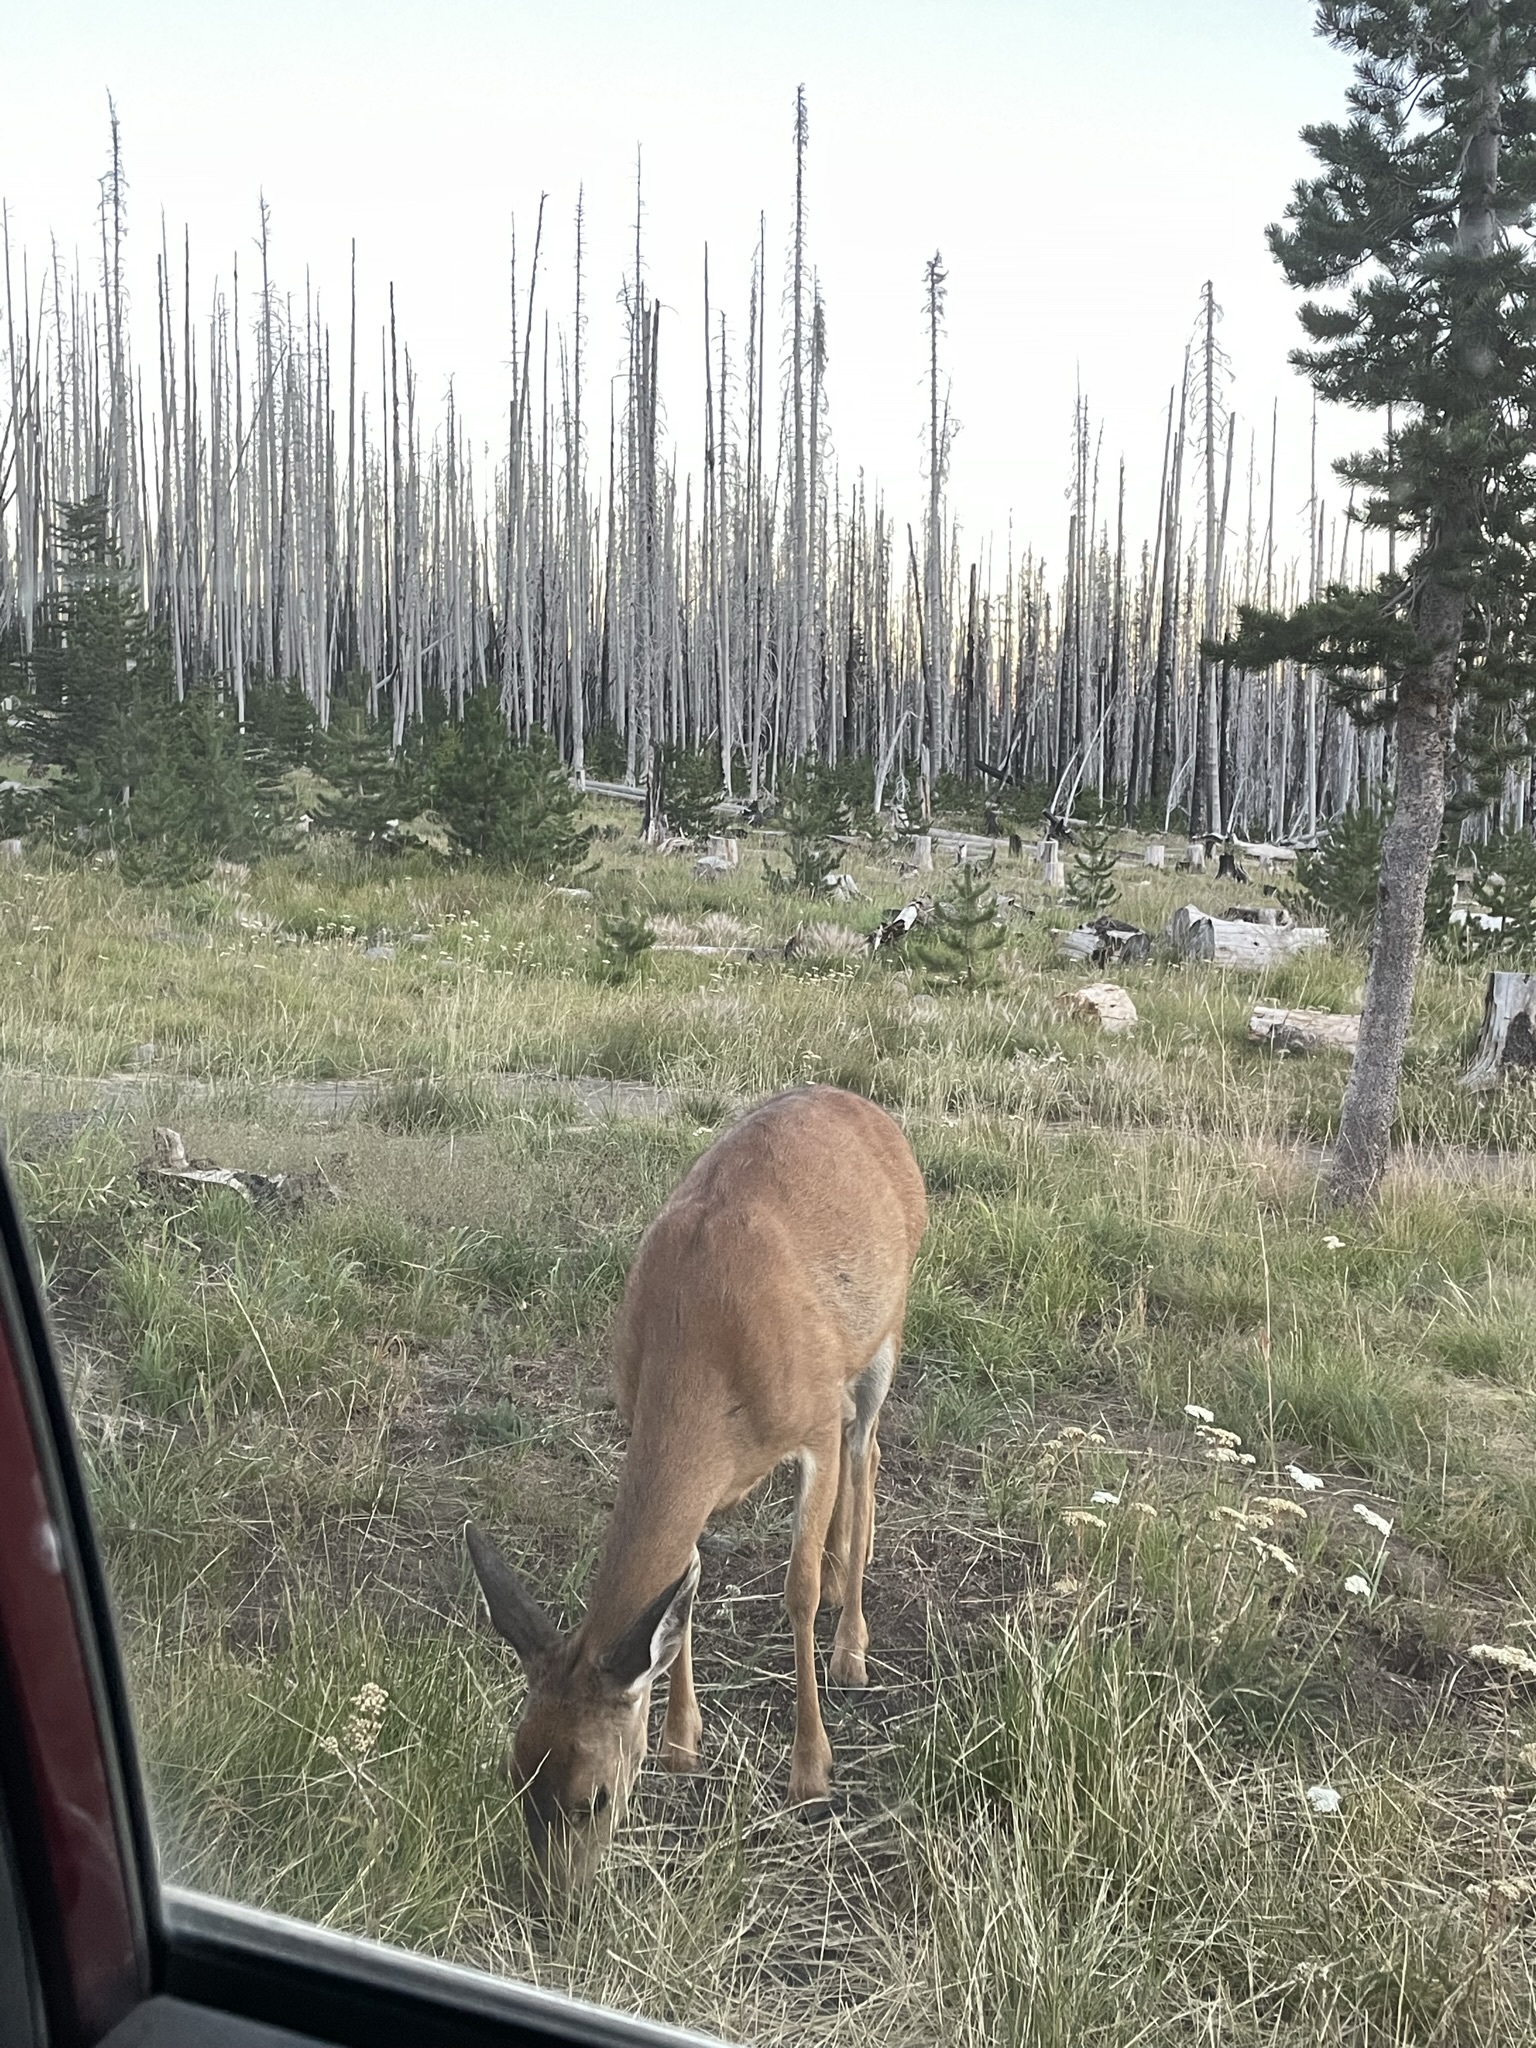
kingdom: Animalia
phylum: Chordata
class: Mammalia
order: Artiodactyla
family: Cervidae
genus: Odocoileus
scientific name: Odocoileus hemionus
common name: Mule deer
